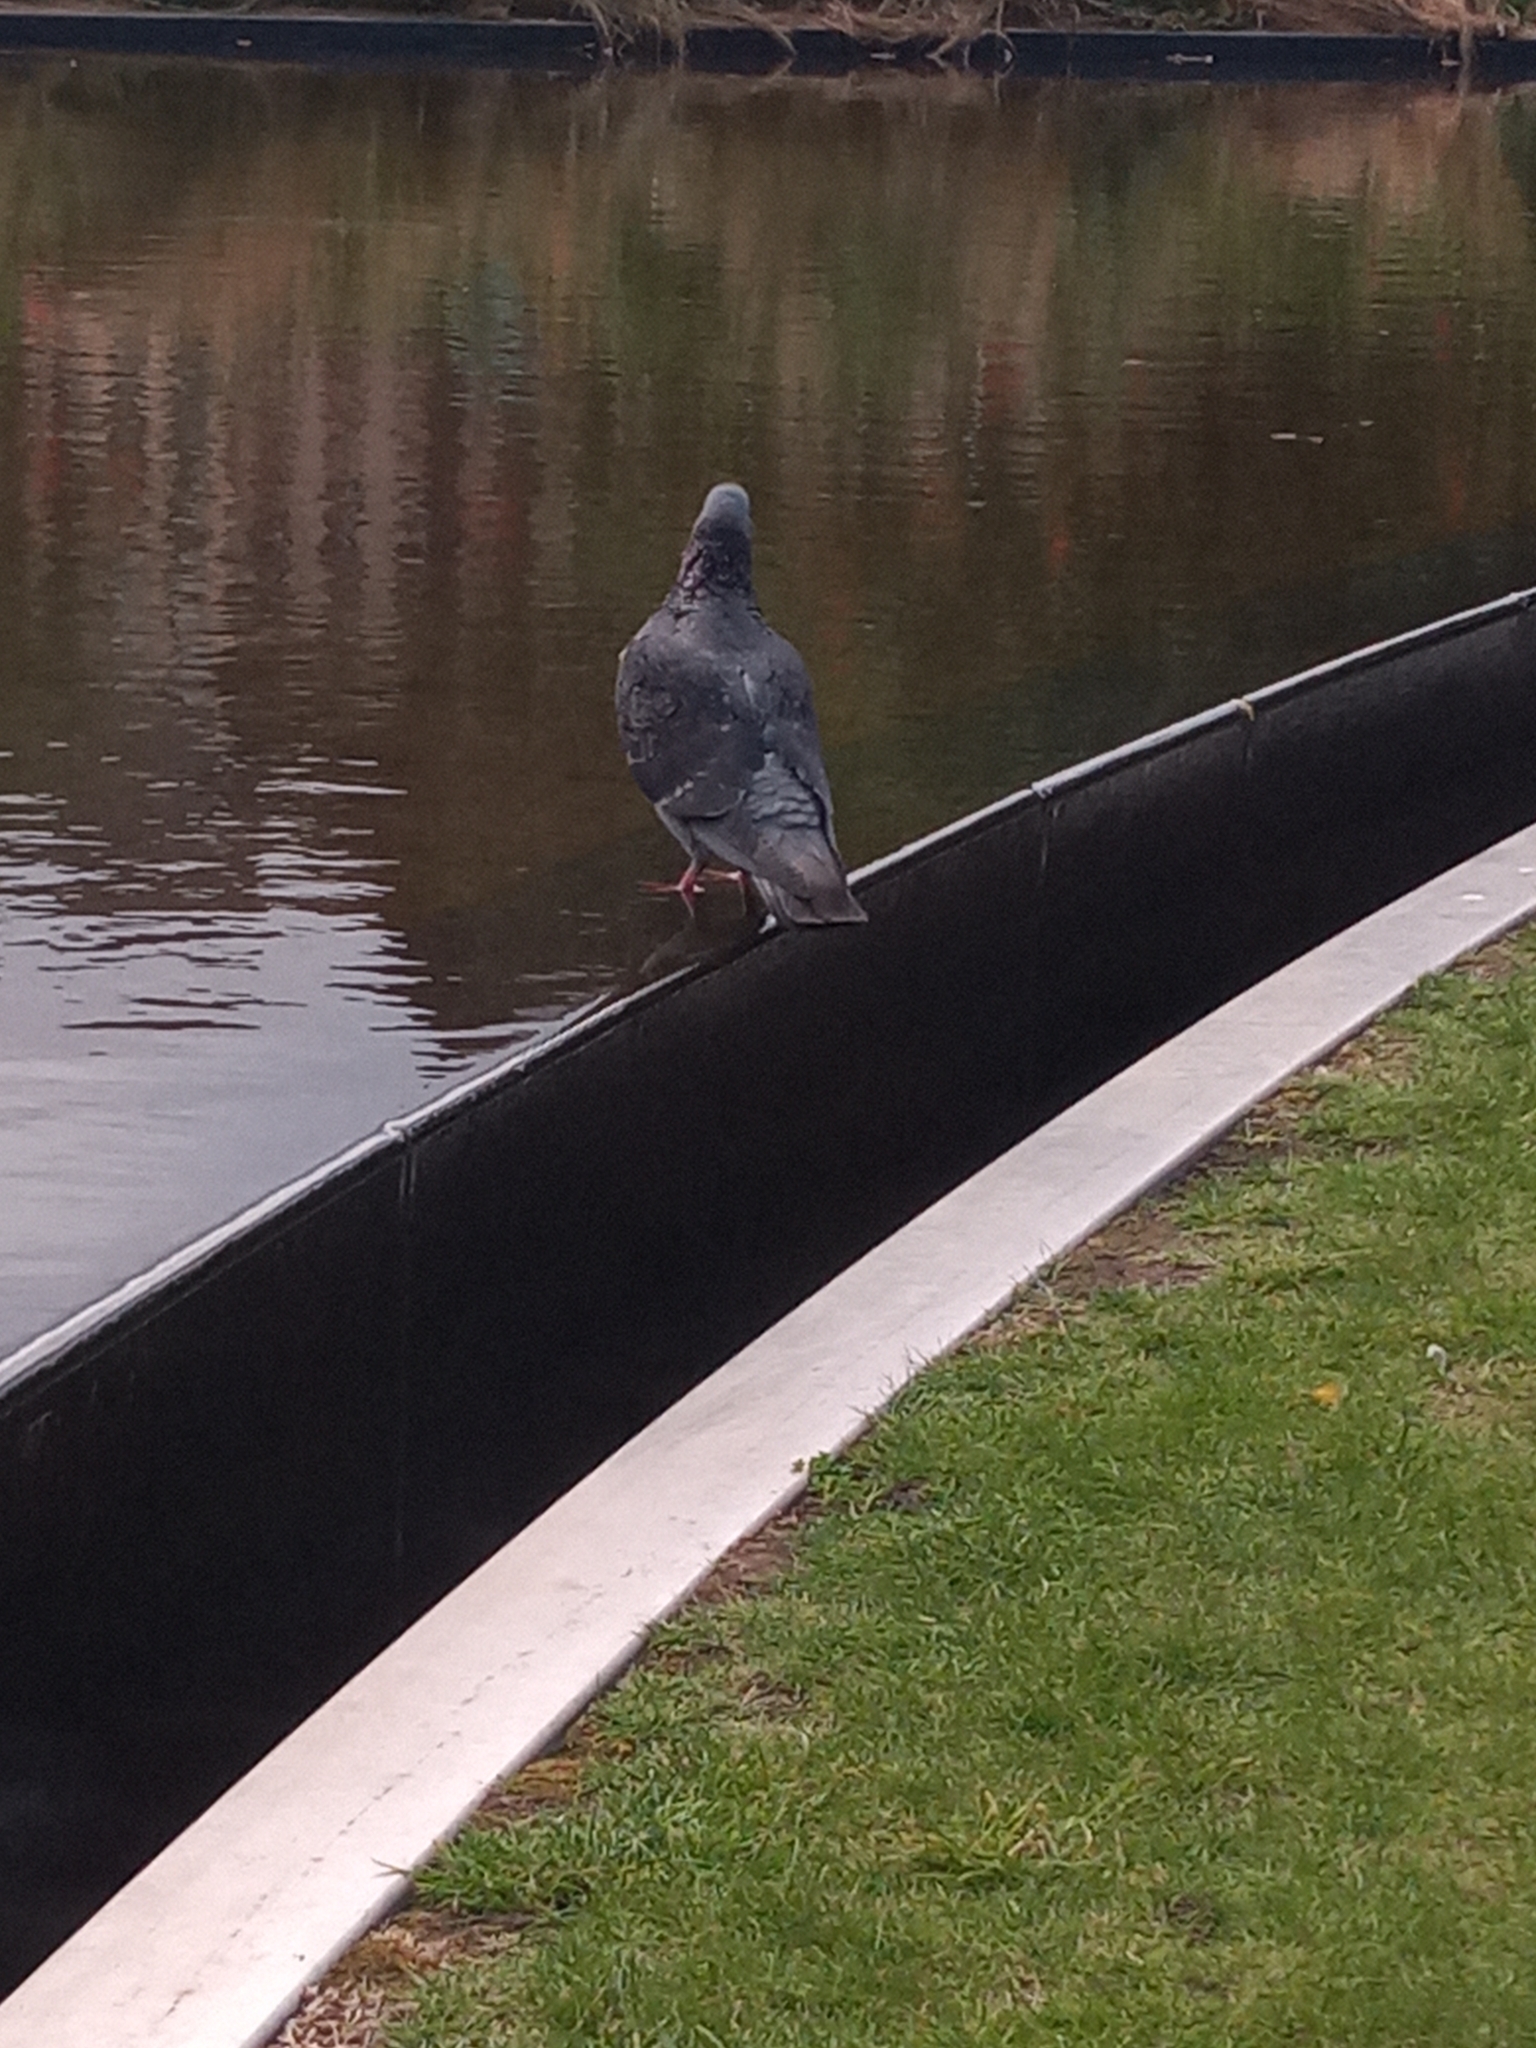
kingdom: Animalia
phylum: Chordata
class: Aves
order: Columbiformes
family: Columbidae
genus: Columba
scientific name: Columba livia
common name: Rock pigeon
